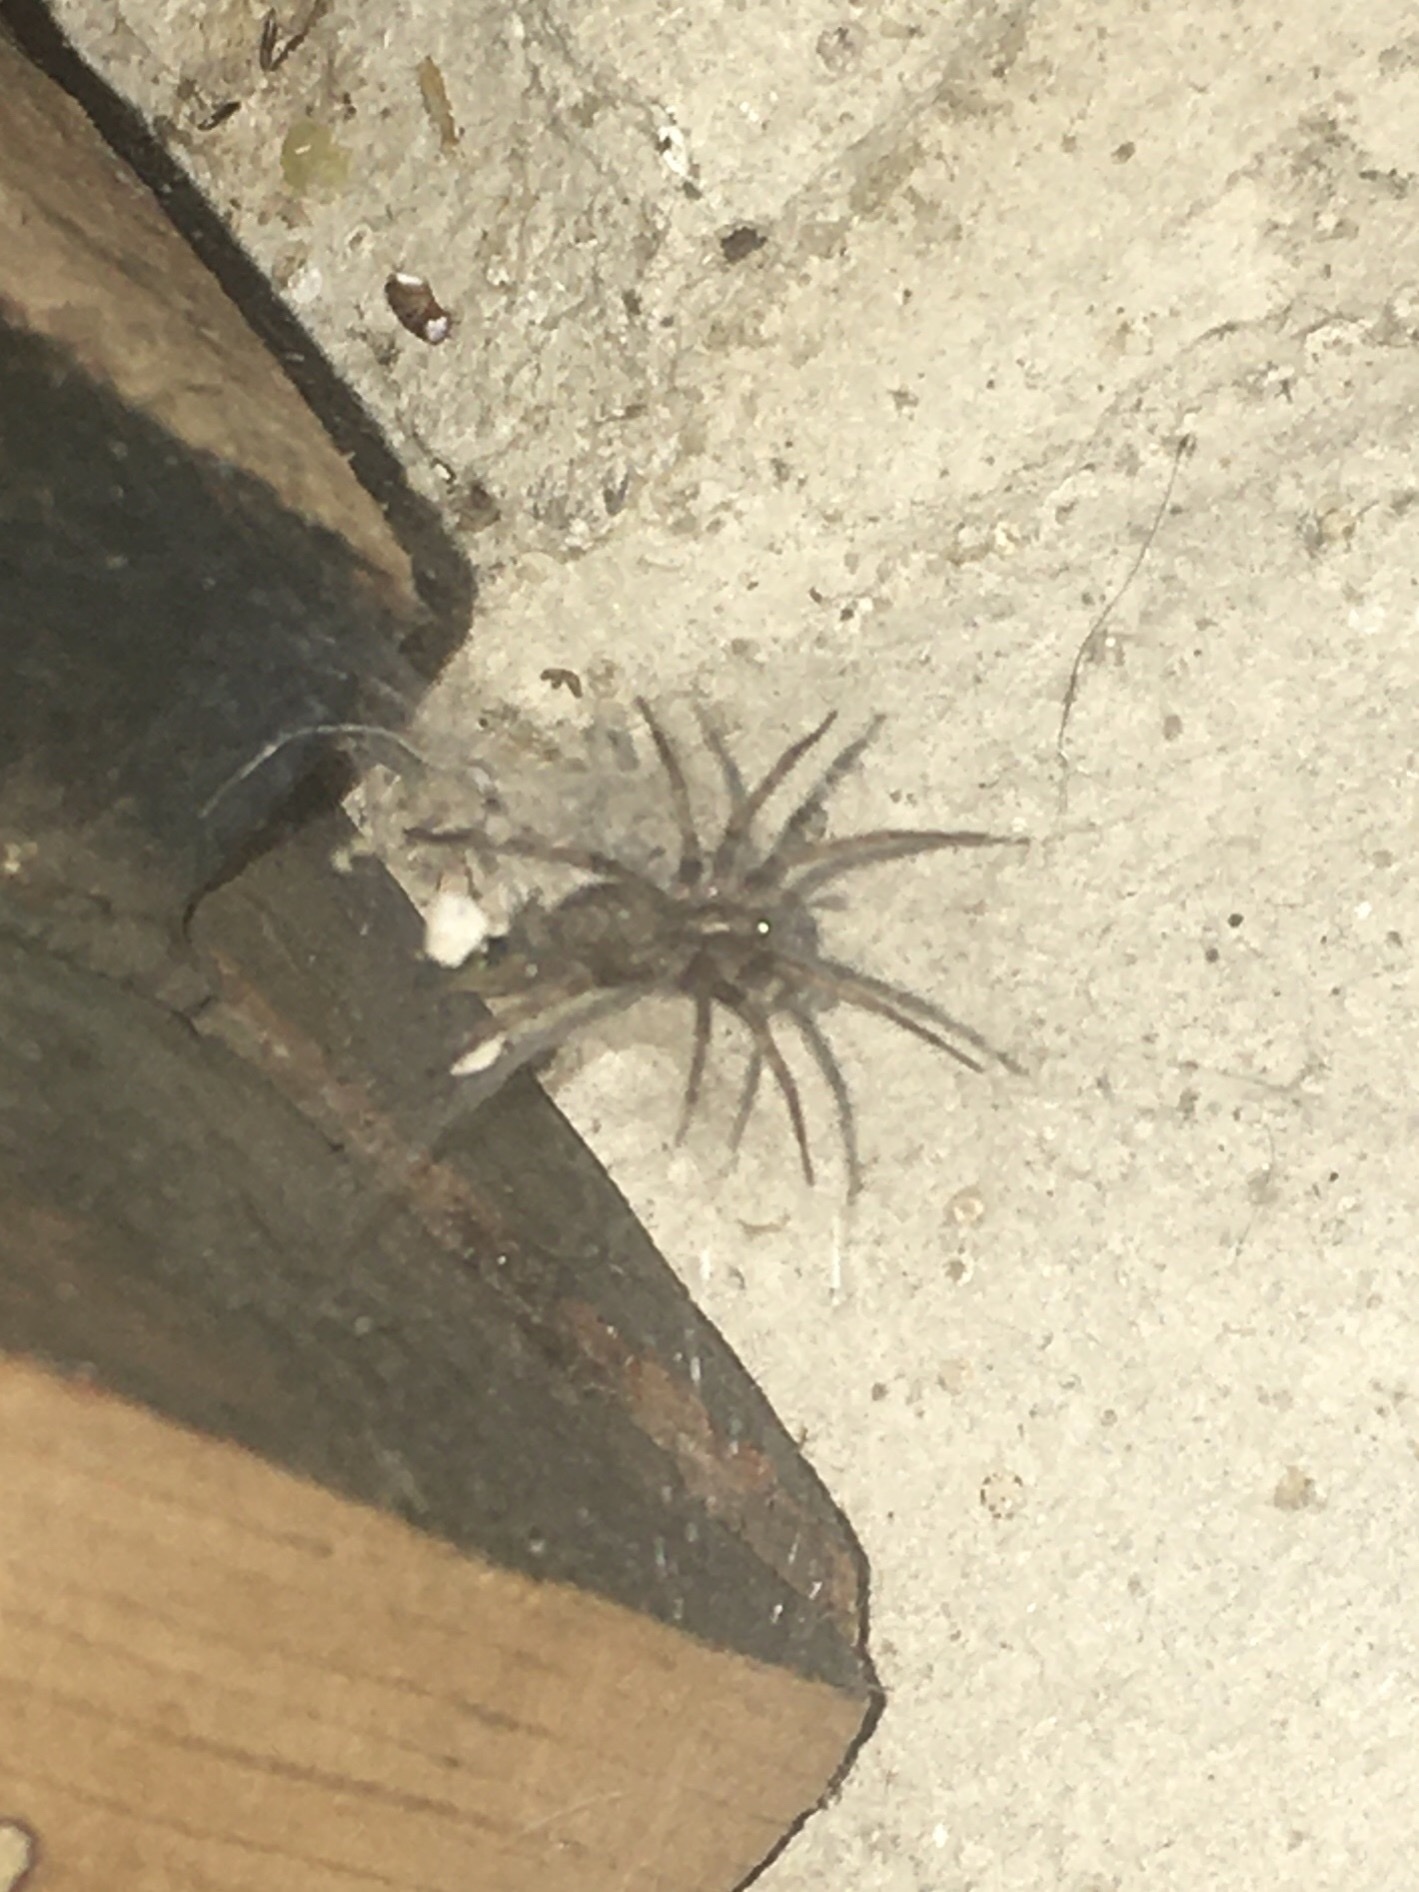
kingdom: Animalia
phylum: Arthropoda
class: Arachnida
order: Araneae
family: Agelenidae
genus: Tegenaria
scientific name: Tegenaria domestica
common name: Barn funnel weaver
